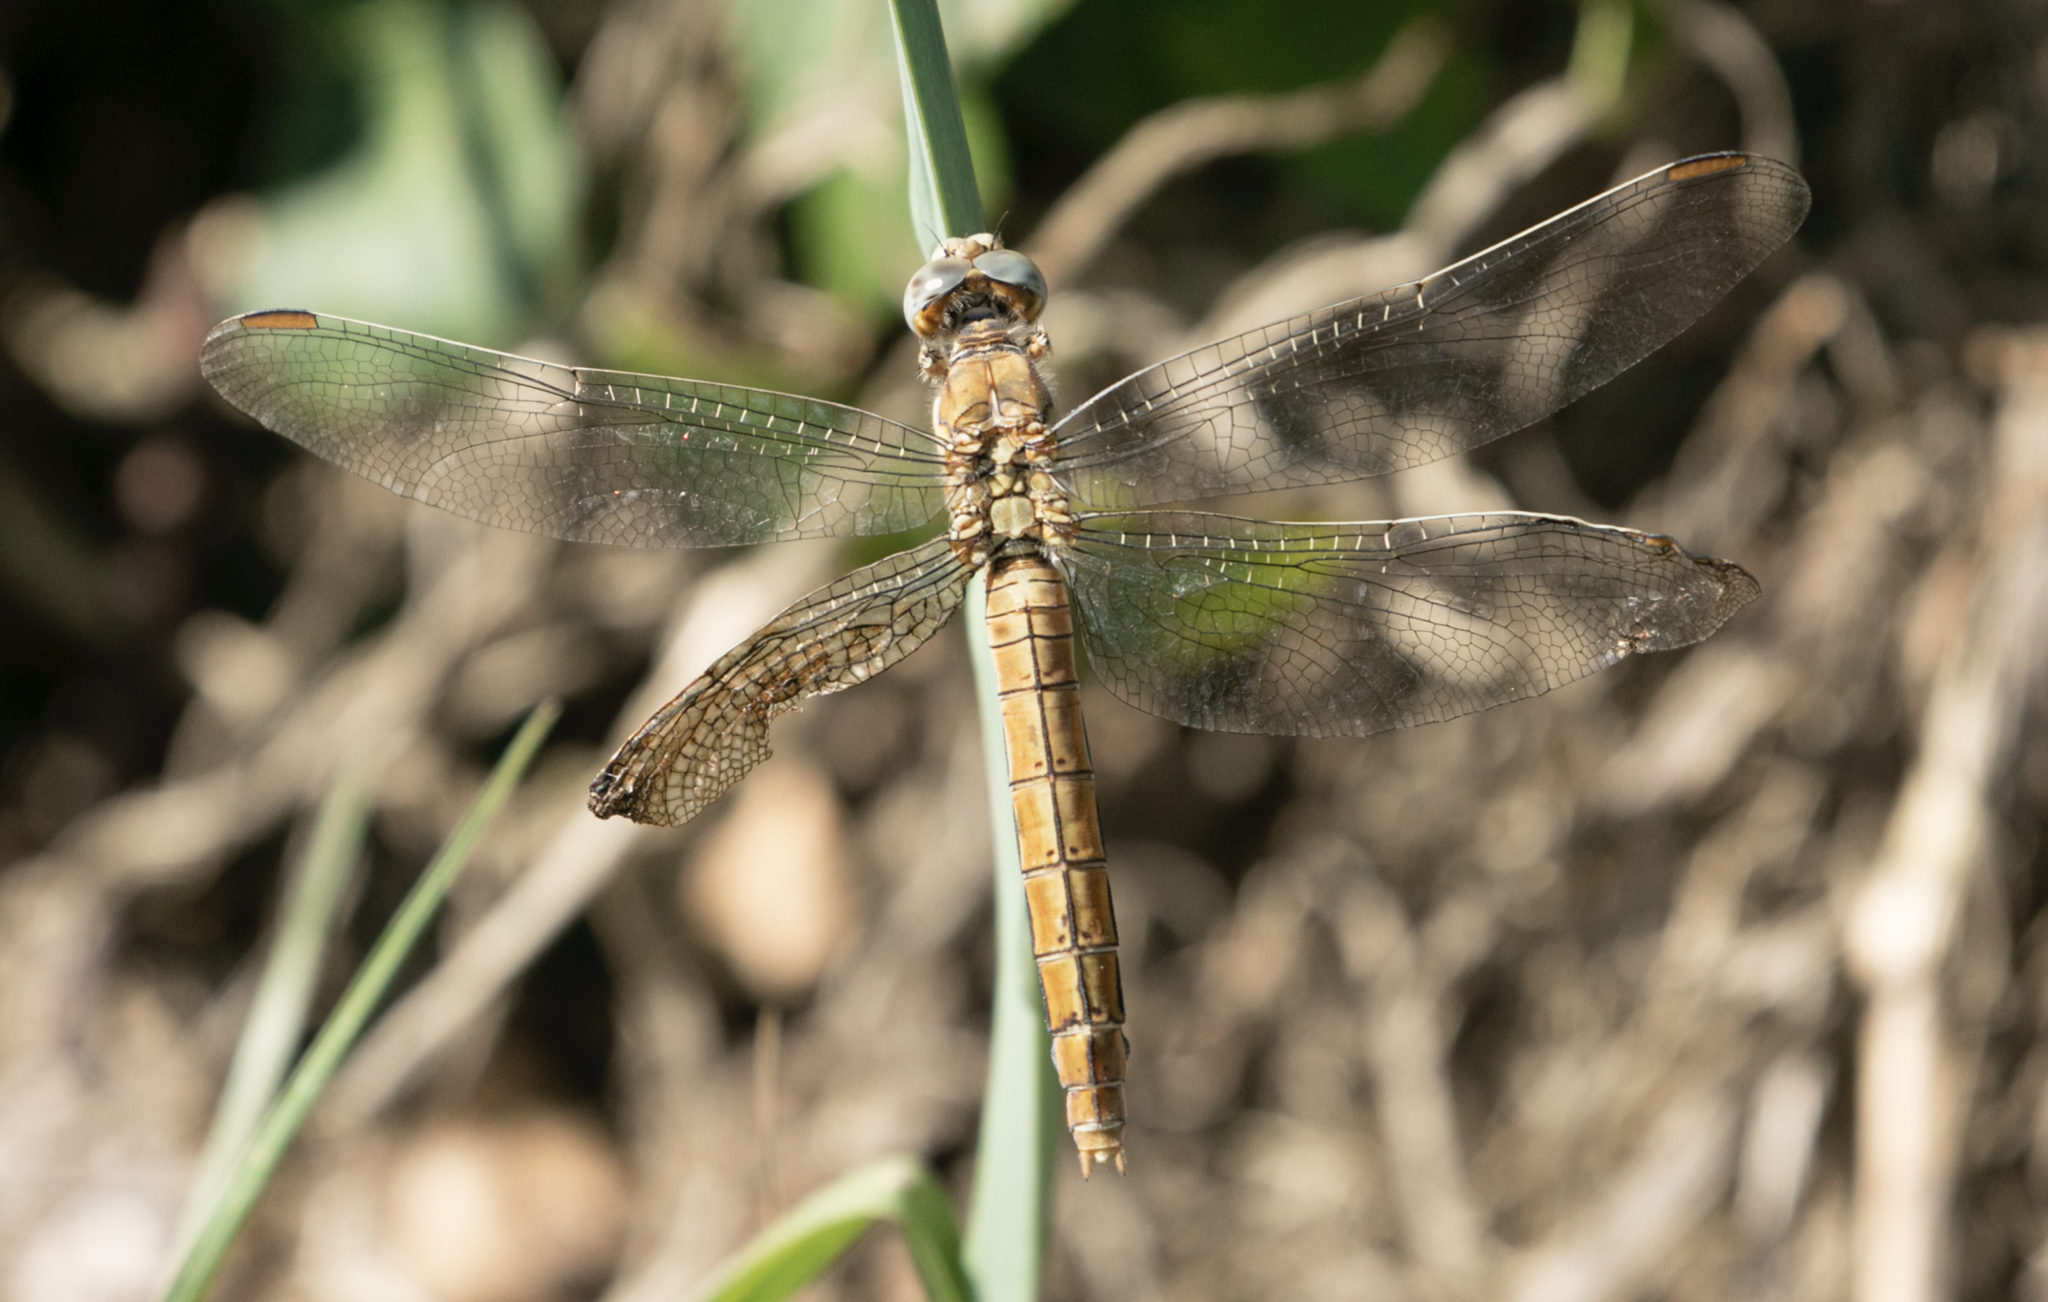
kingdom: Animalia
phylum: Arthropoda
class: Insecta
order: Odonata
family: Libellulidae
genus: Orthetrum
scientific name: Orthetrum brunneum
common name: Southern skimmer
